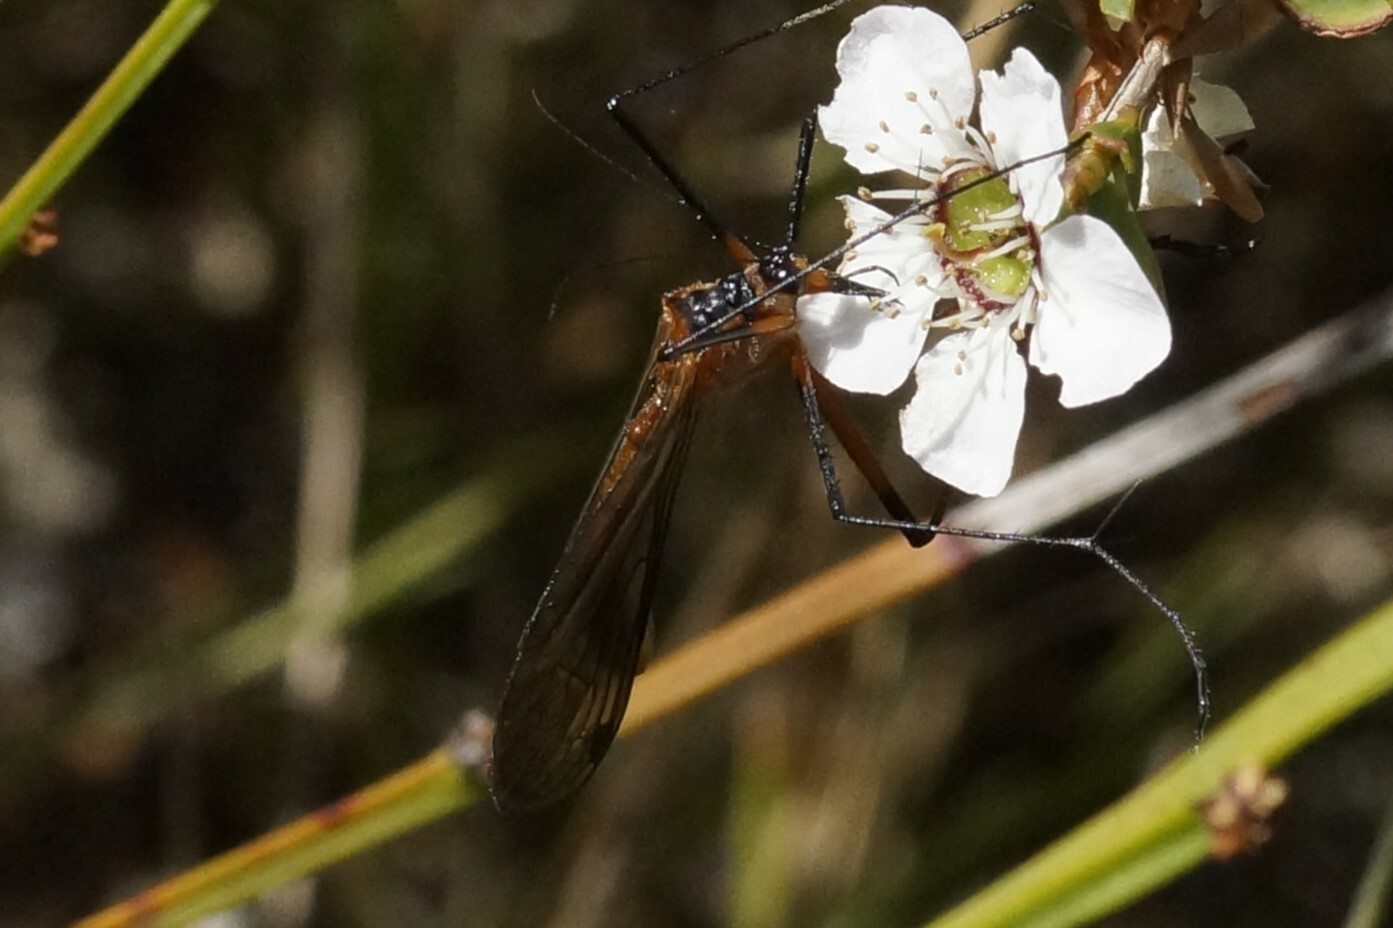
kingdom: Animalia
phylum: Arthropoda
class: Insecta
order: Mecoptera
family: Bittacidae
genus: Harpobittacus
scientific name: Harpobittacus australis
